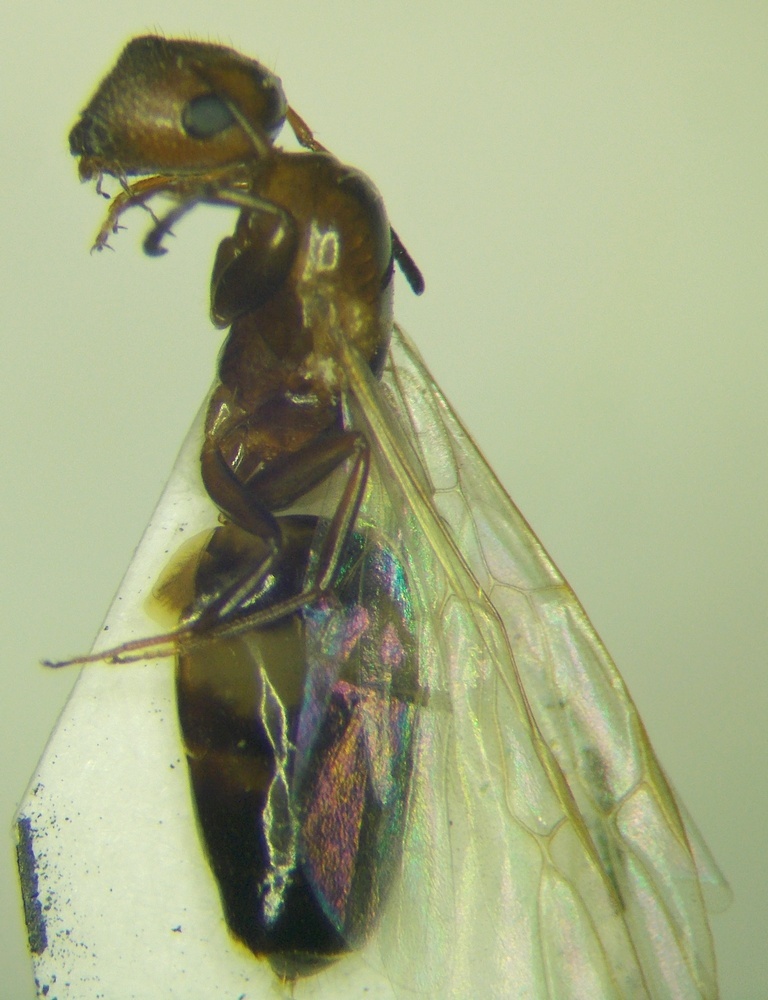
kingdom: Animalia
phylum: Arthropoda
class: Insecta
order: Hymenoptera
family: Formicidae
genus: Camponotus
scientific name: Camponotus truncatus
